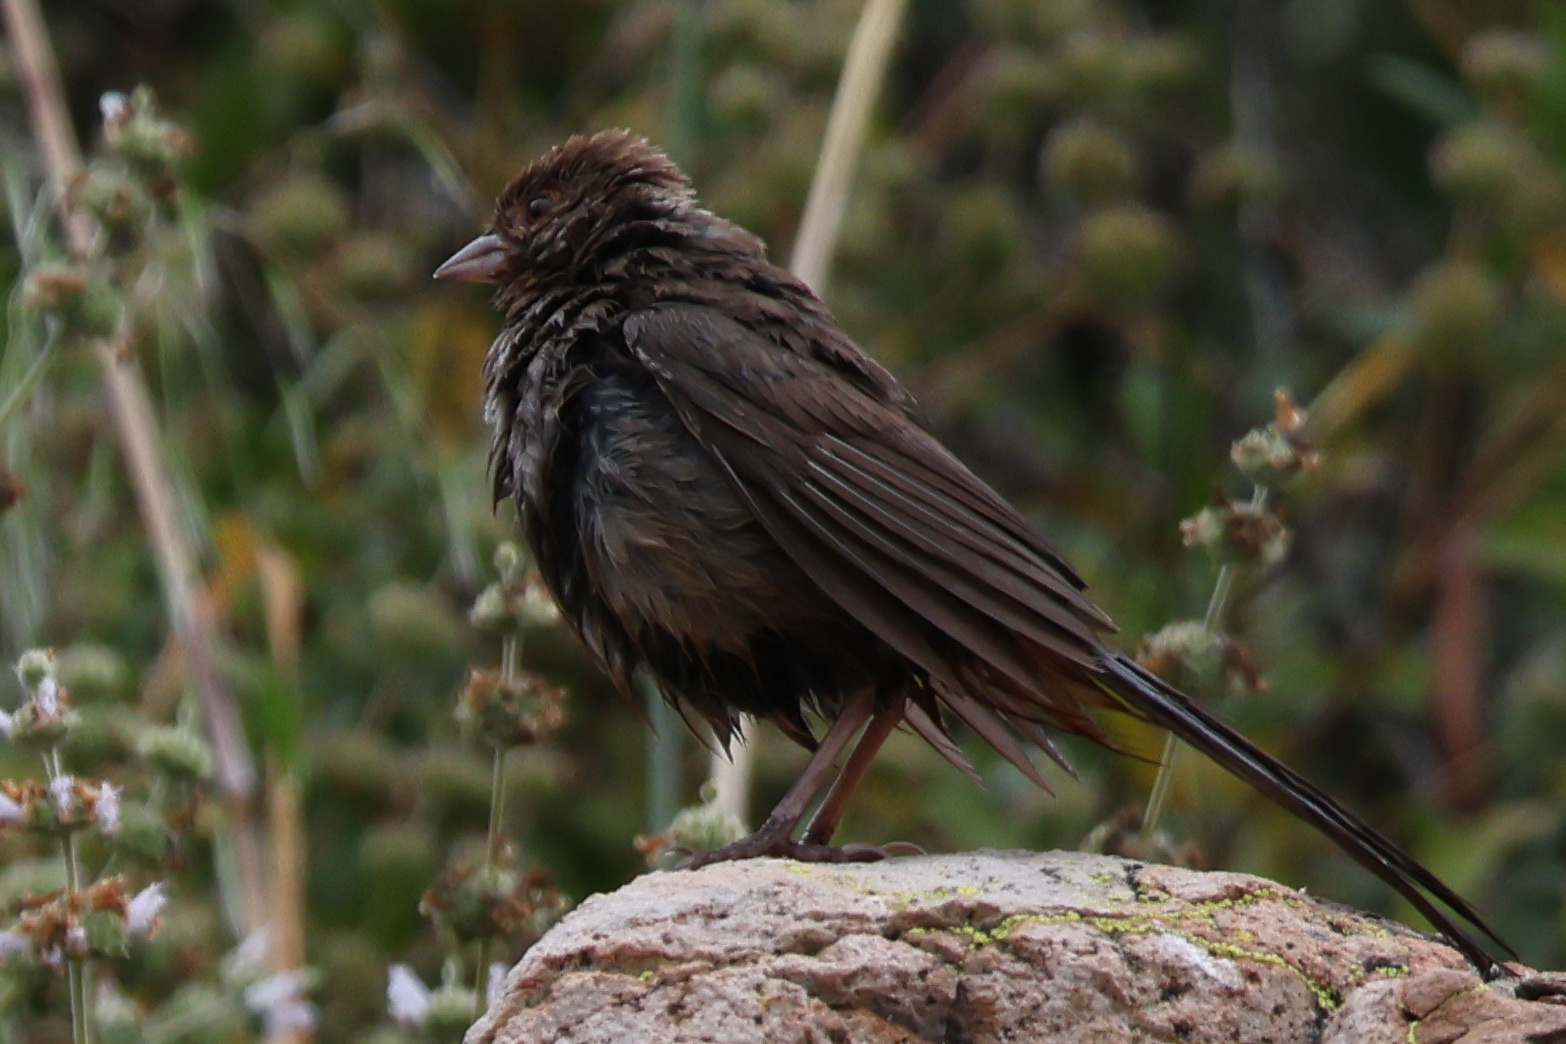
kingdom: Animalia
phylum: Chordata
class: Aves
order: Passeriformes
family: Passerellidae
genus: Melozone
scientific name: Melozone crissalis
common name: California towhee
